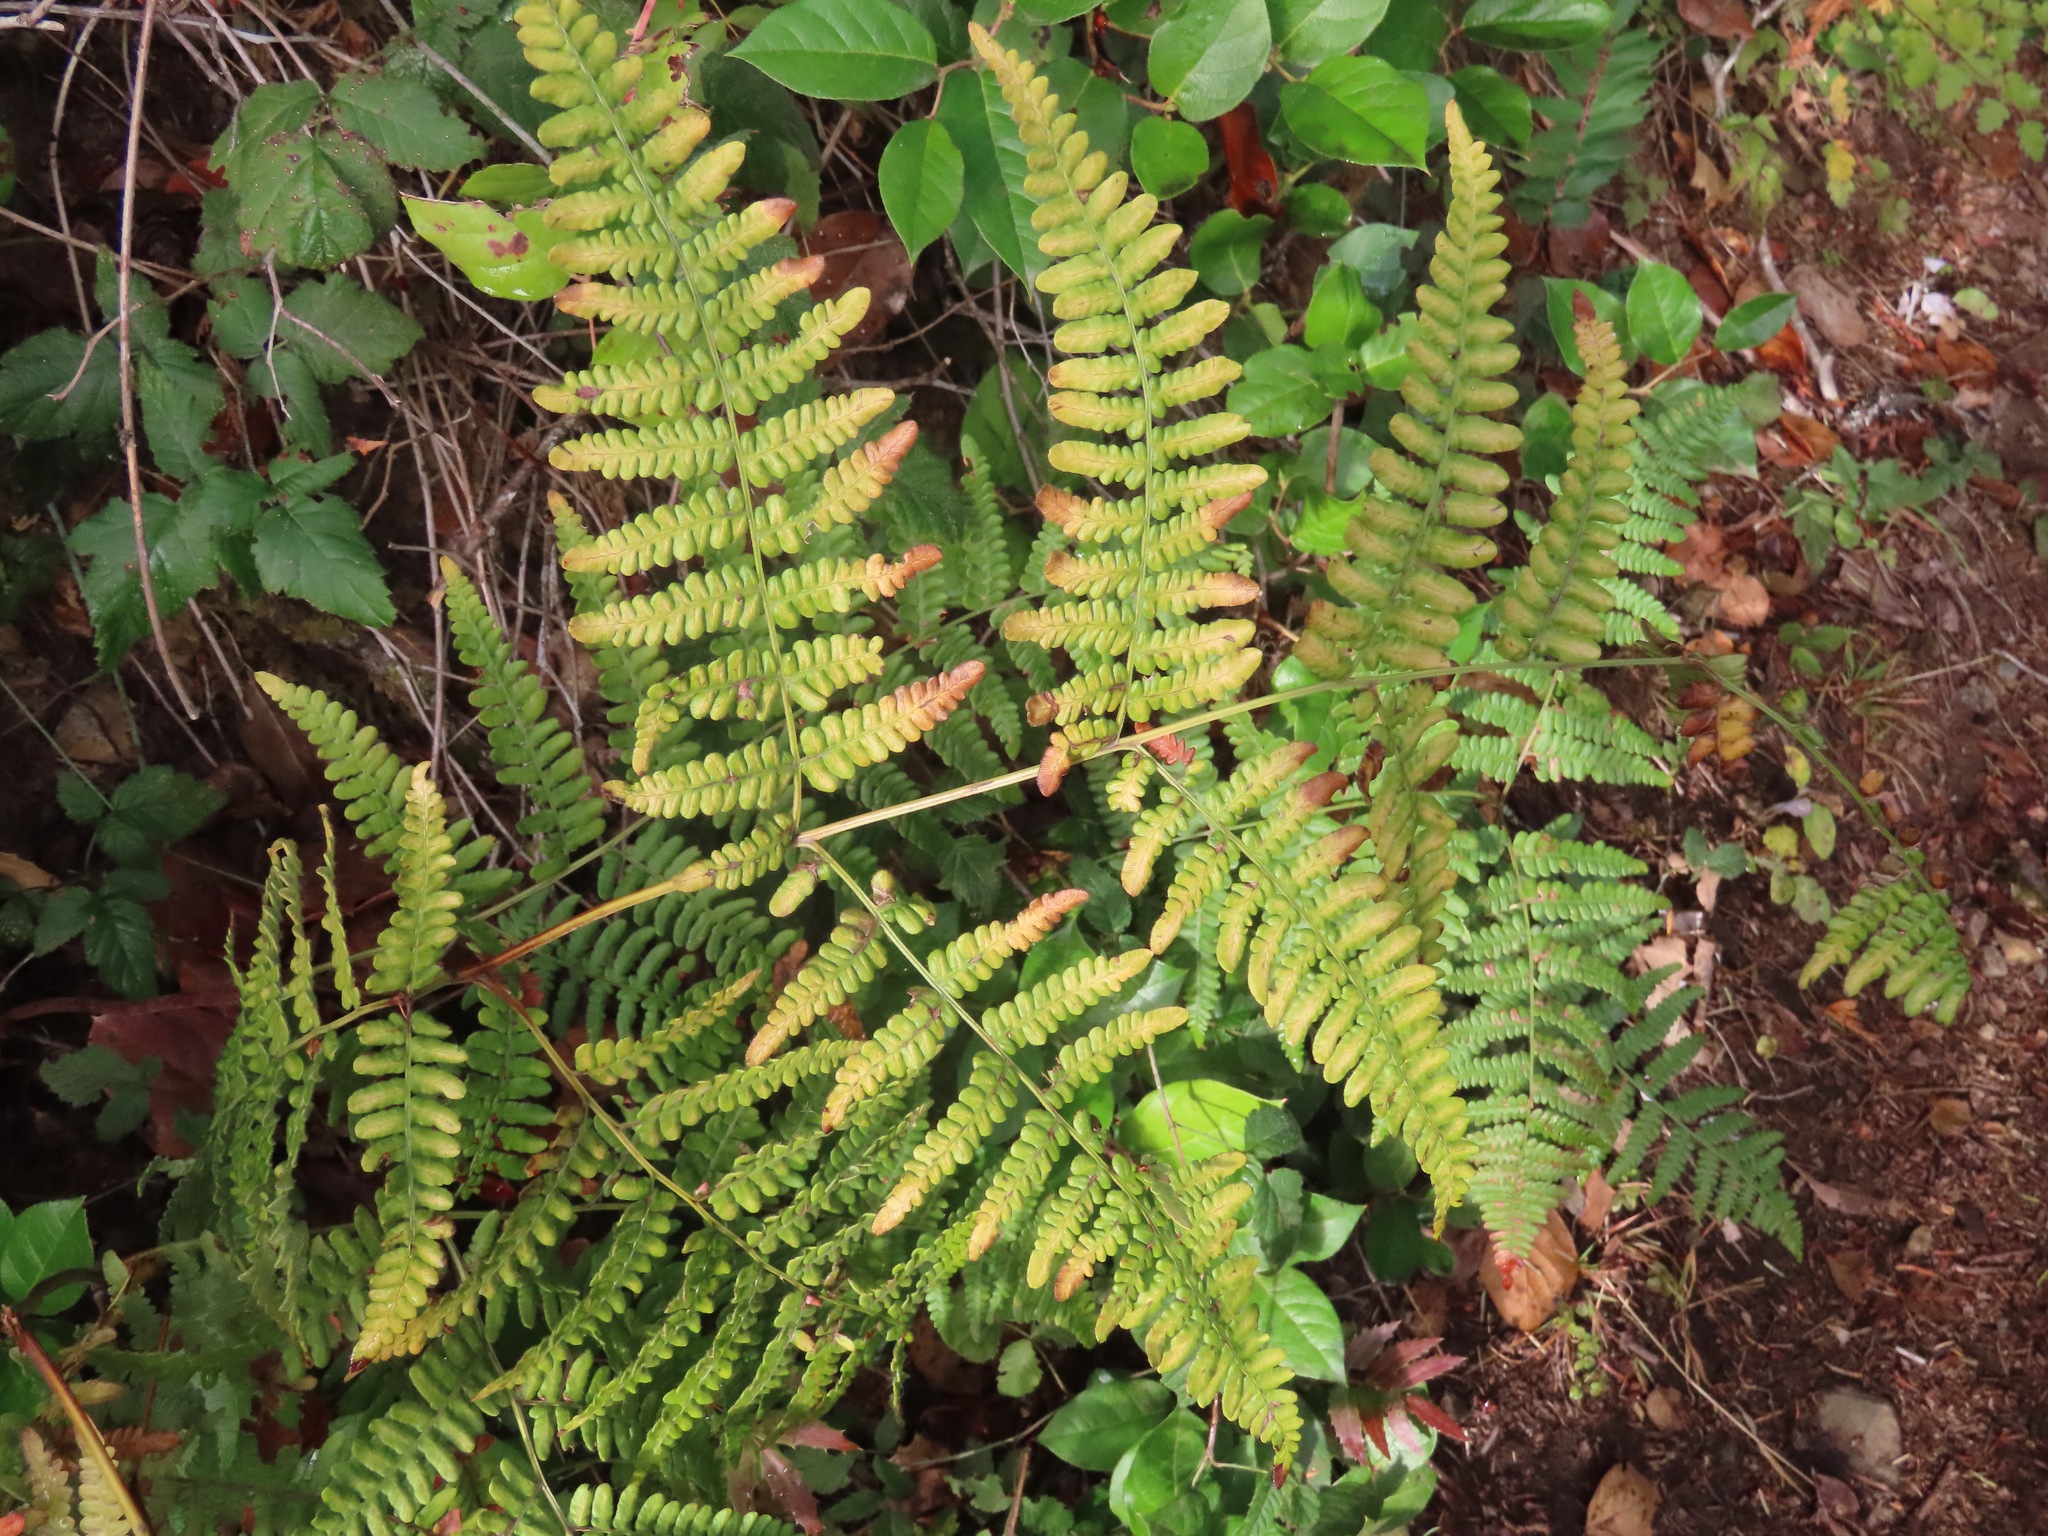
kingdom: Plantae
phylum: Tracheophyta
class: Polypodiopsida
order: Polypodiales
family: Dennstaedtiaceae
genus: Pteridium
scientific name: Pteridium aquilinum
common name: Bracken
